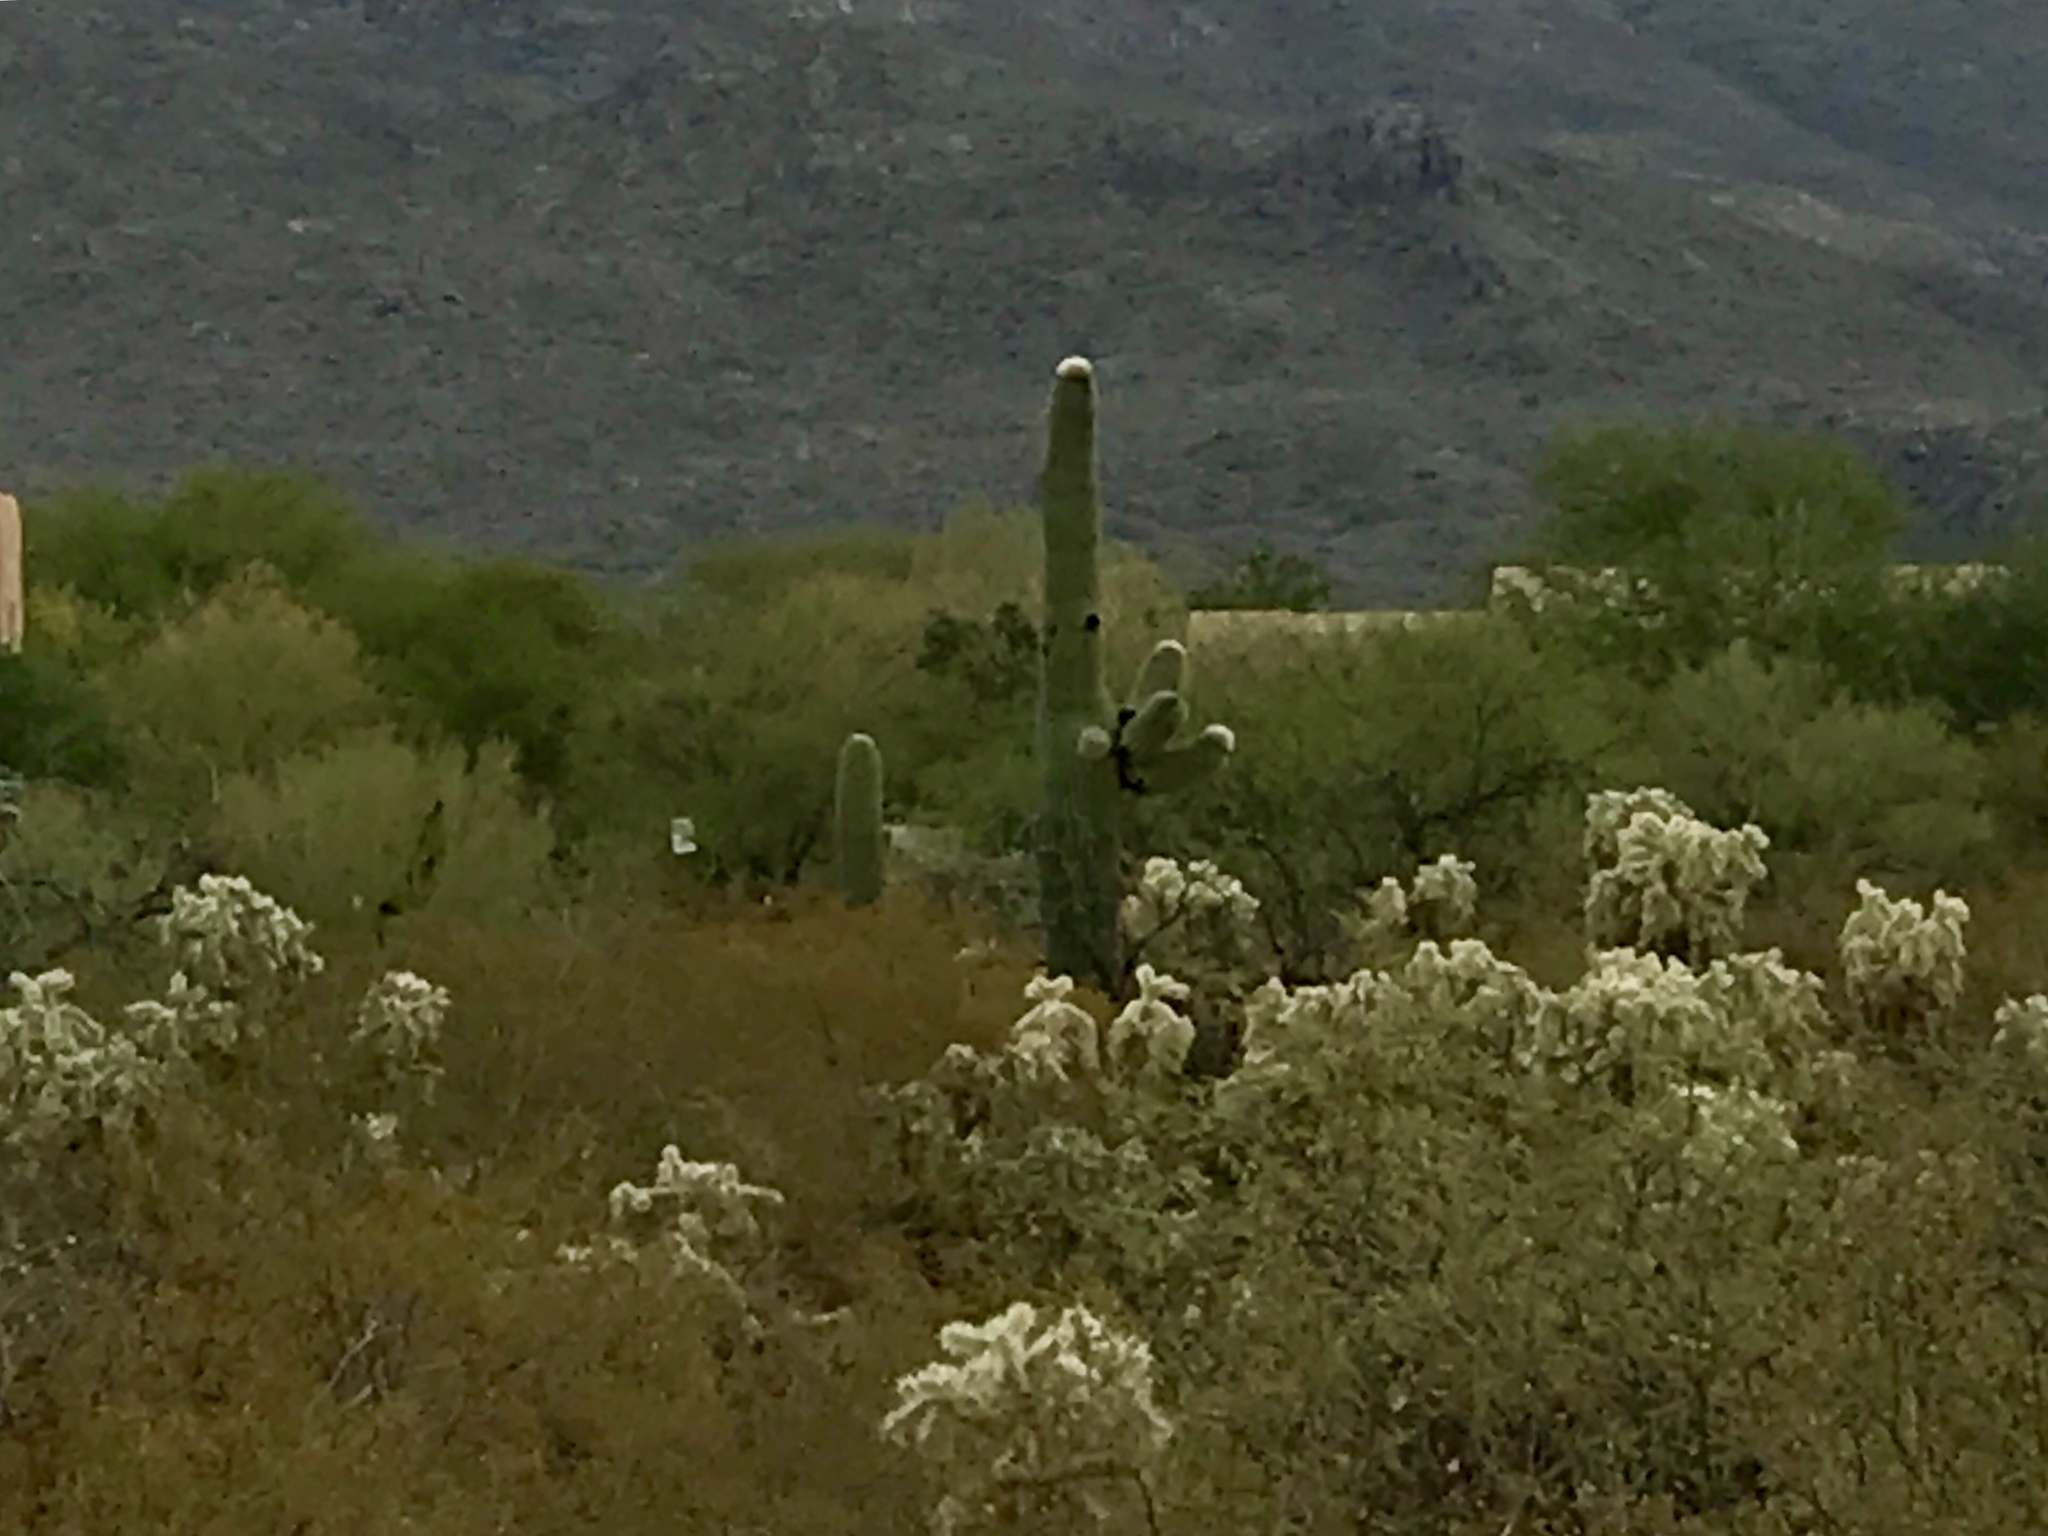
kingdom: Plantae
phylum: Tracheophyta
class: Magnoliopsida
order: Caryophyllales
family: Cactaceae
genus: Carnegiea
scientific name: Carnegiea gigantea
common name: Saguaro
